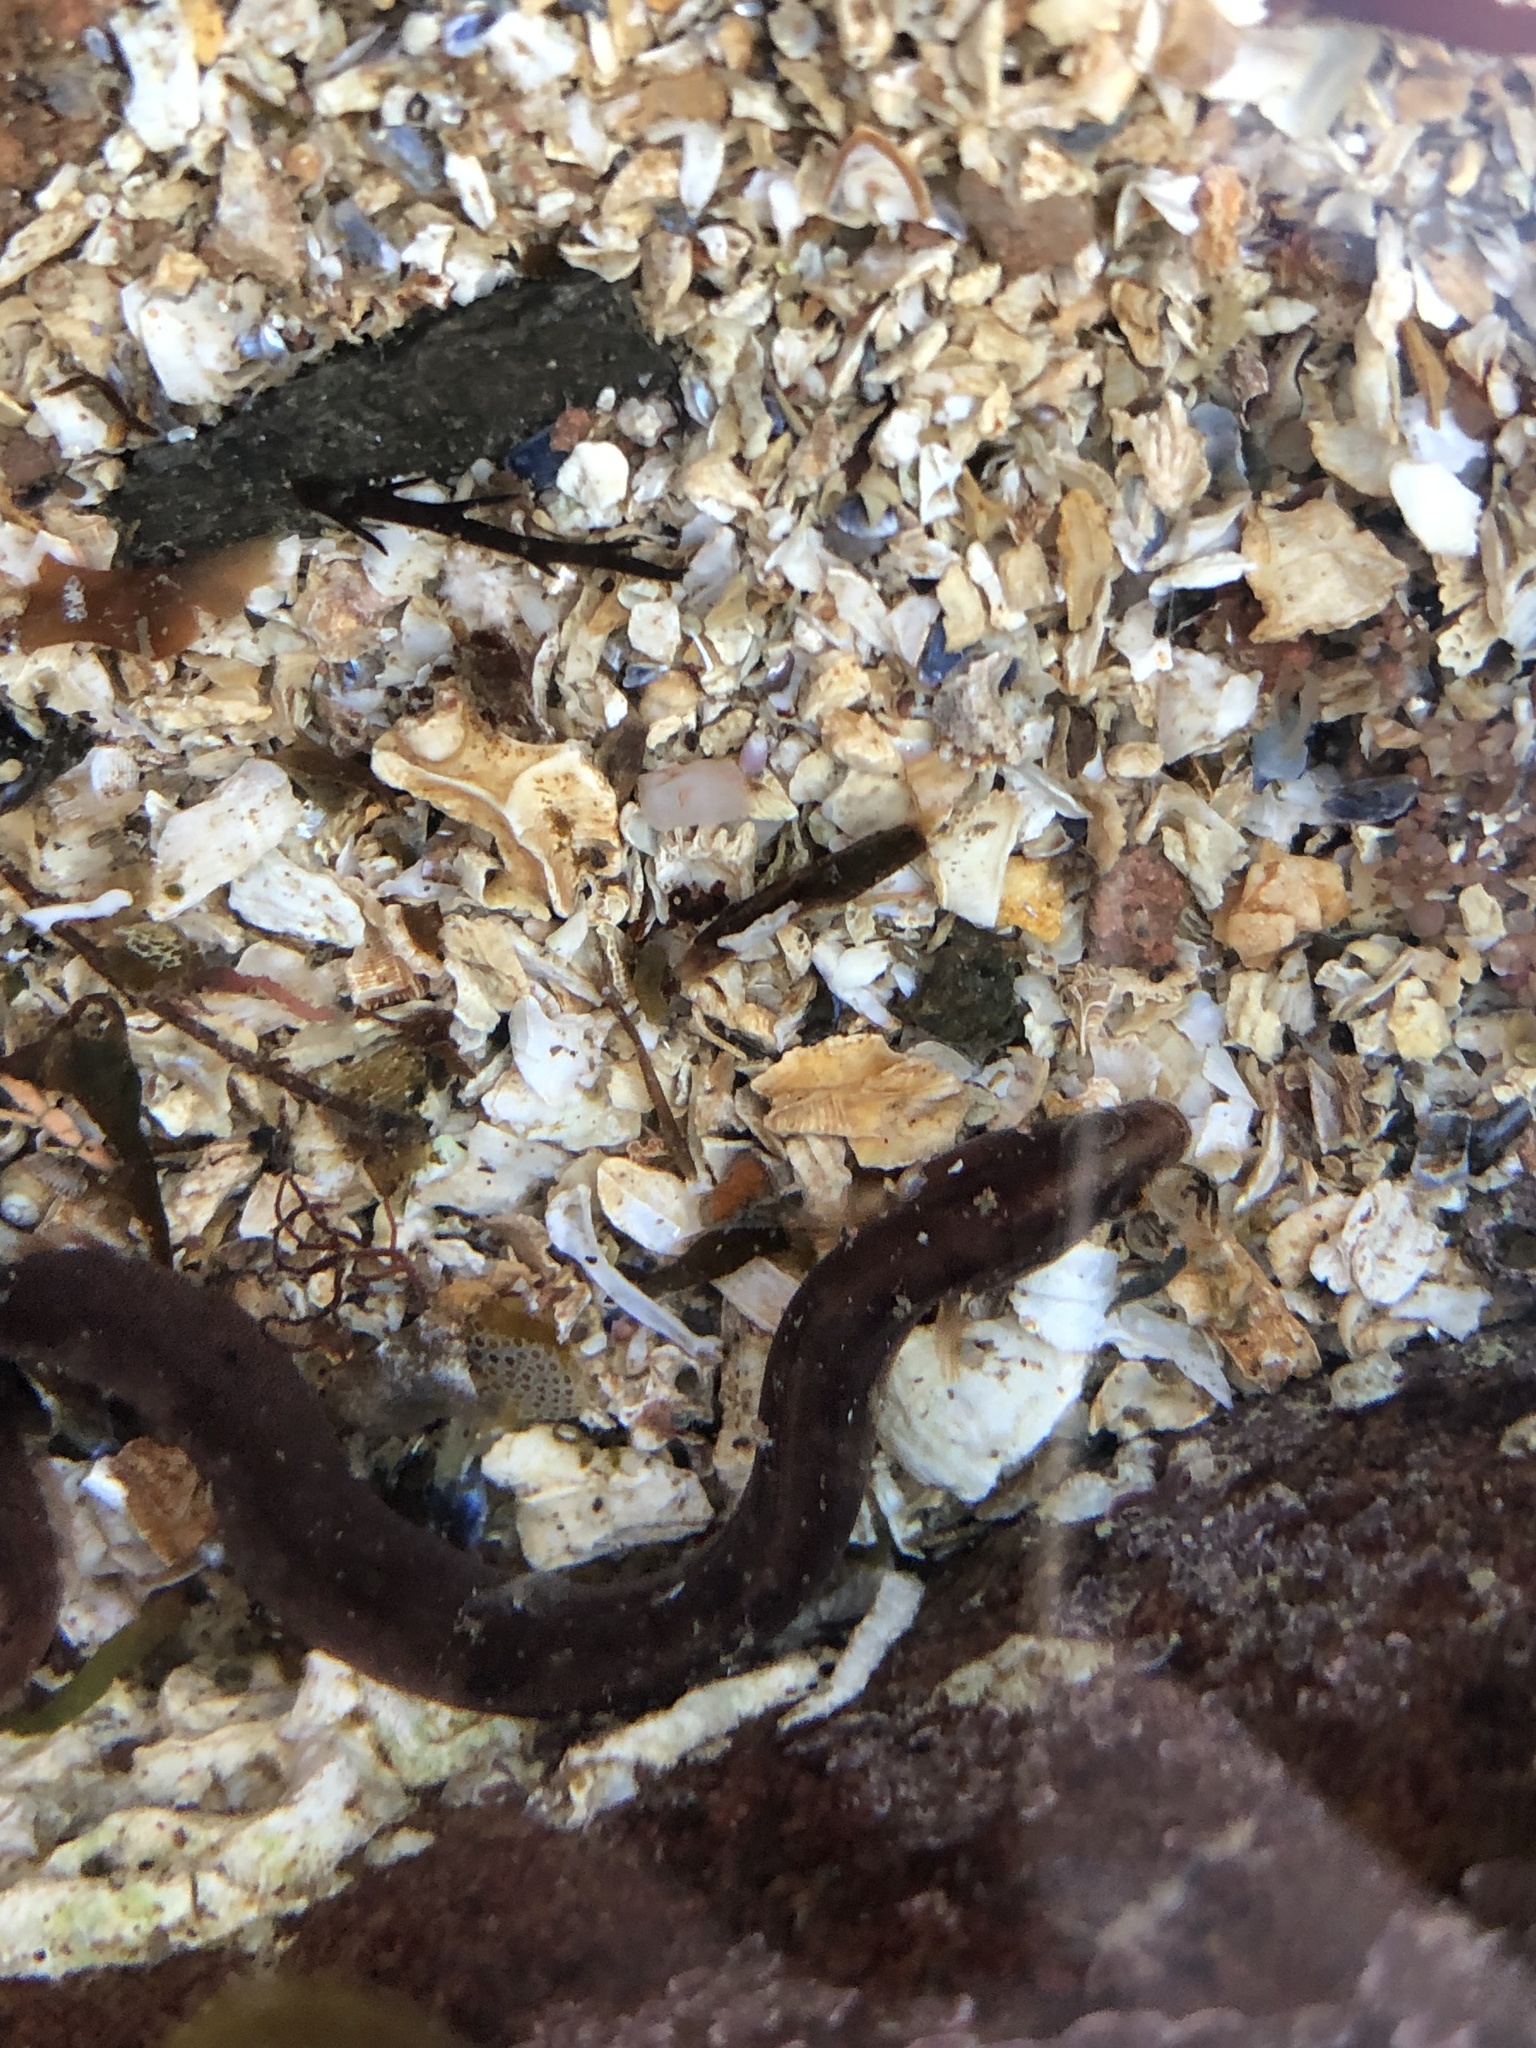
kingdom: Animalia
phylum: Chordata
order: Perciformes
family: Pholidae
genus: Pholis
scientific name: Pholis gunnellus
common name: Butterfish
